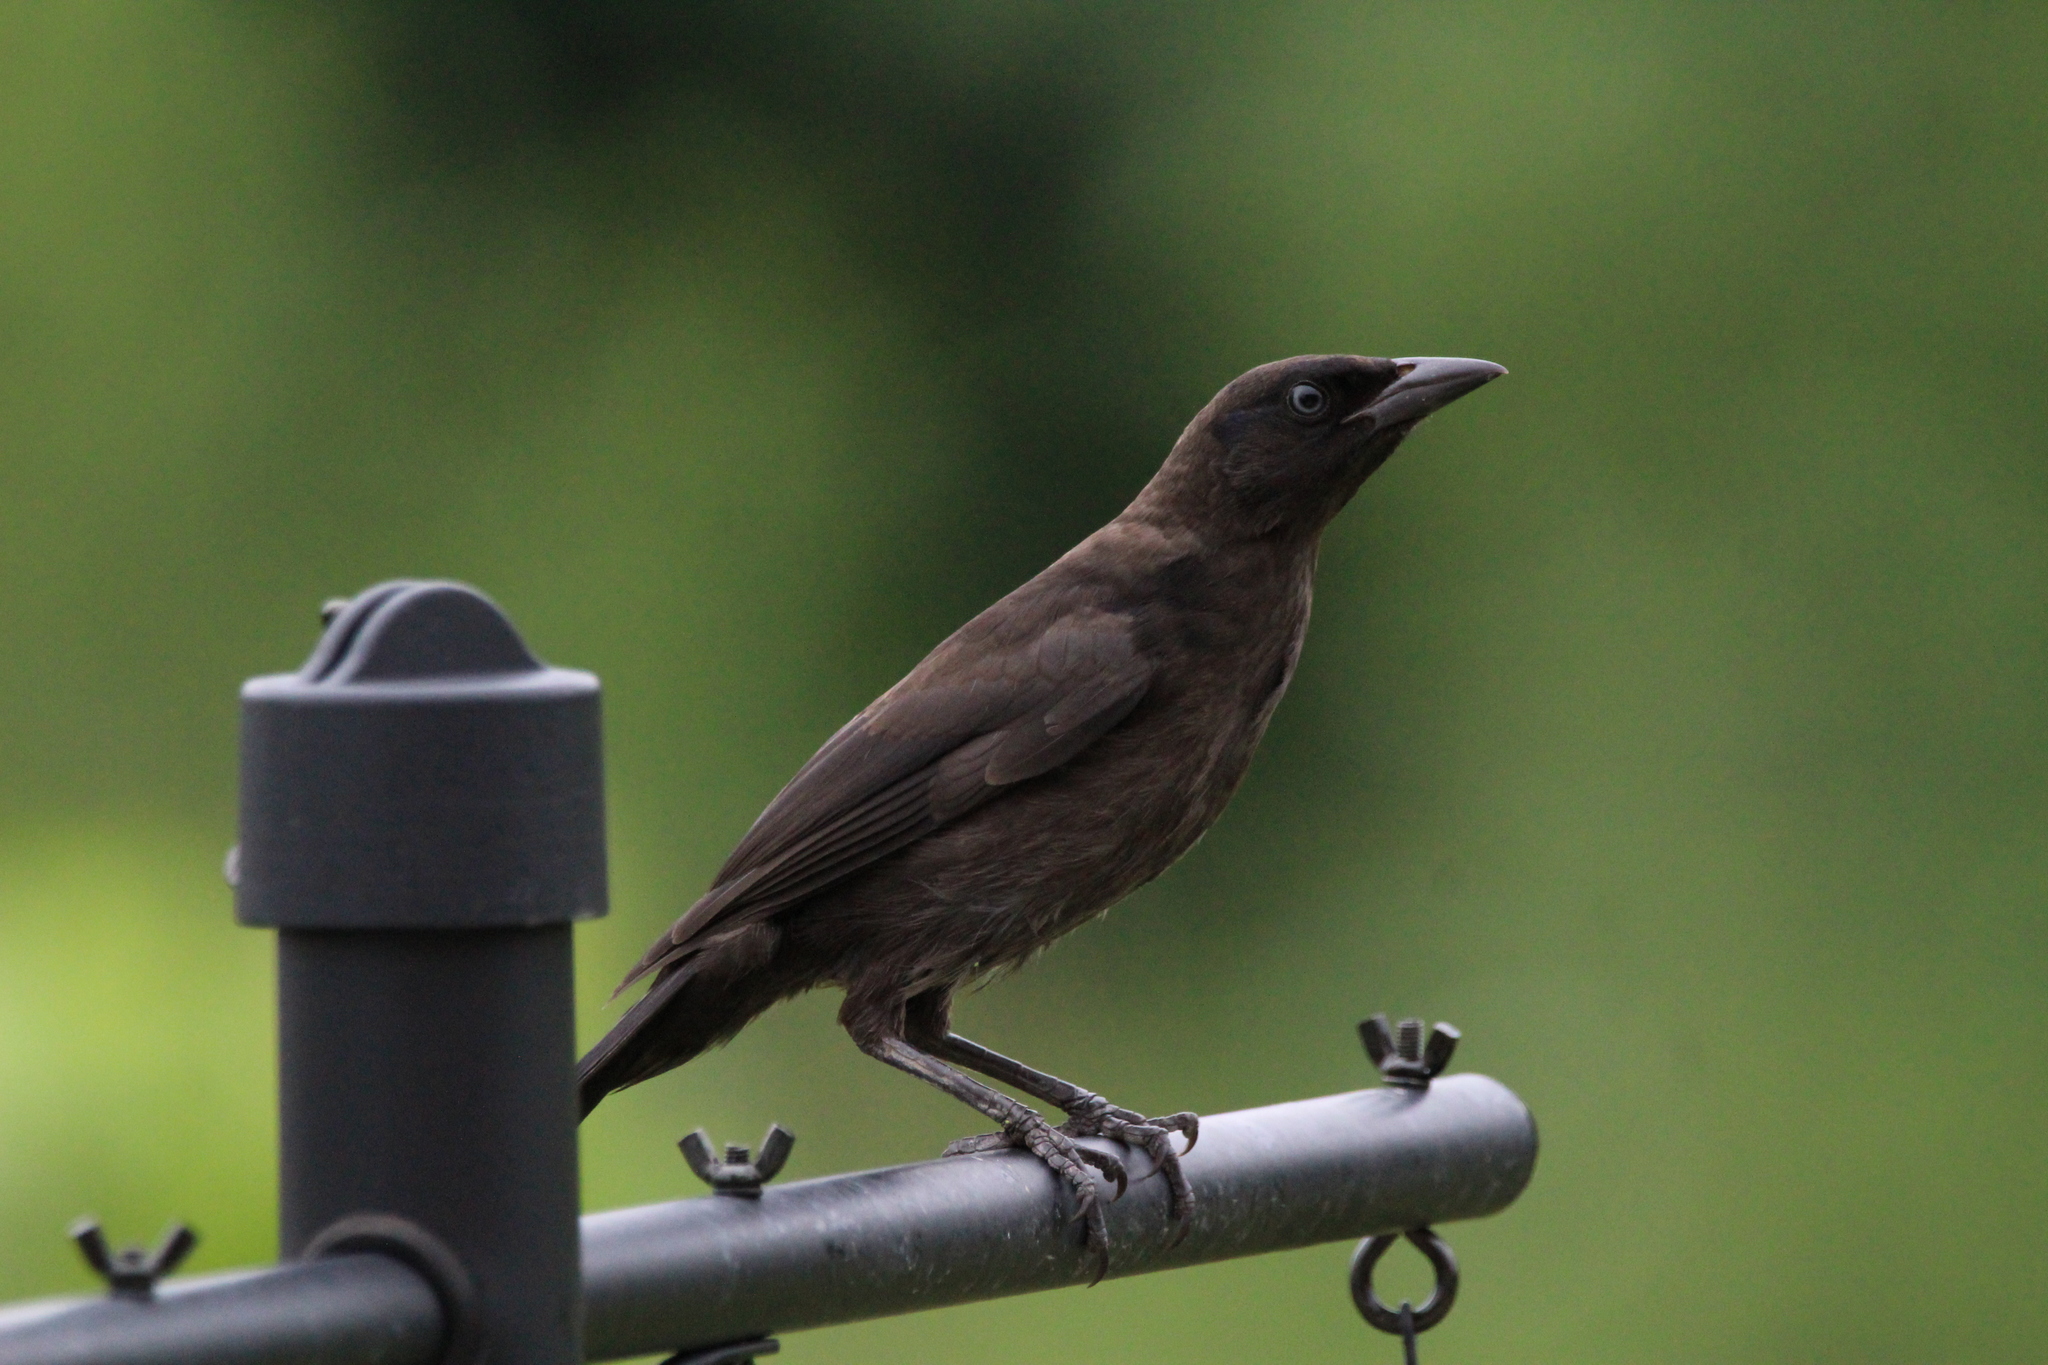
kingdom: Animalia
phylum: Chordata
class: Aves
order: Passeriformes
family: Icteridae
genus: Quiscalus
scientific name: Quiscalus quiscula
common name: Common grackle
